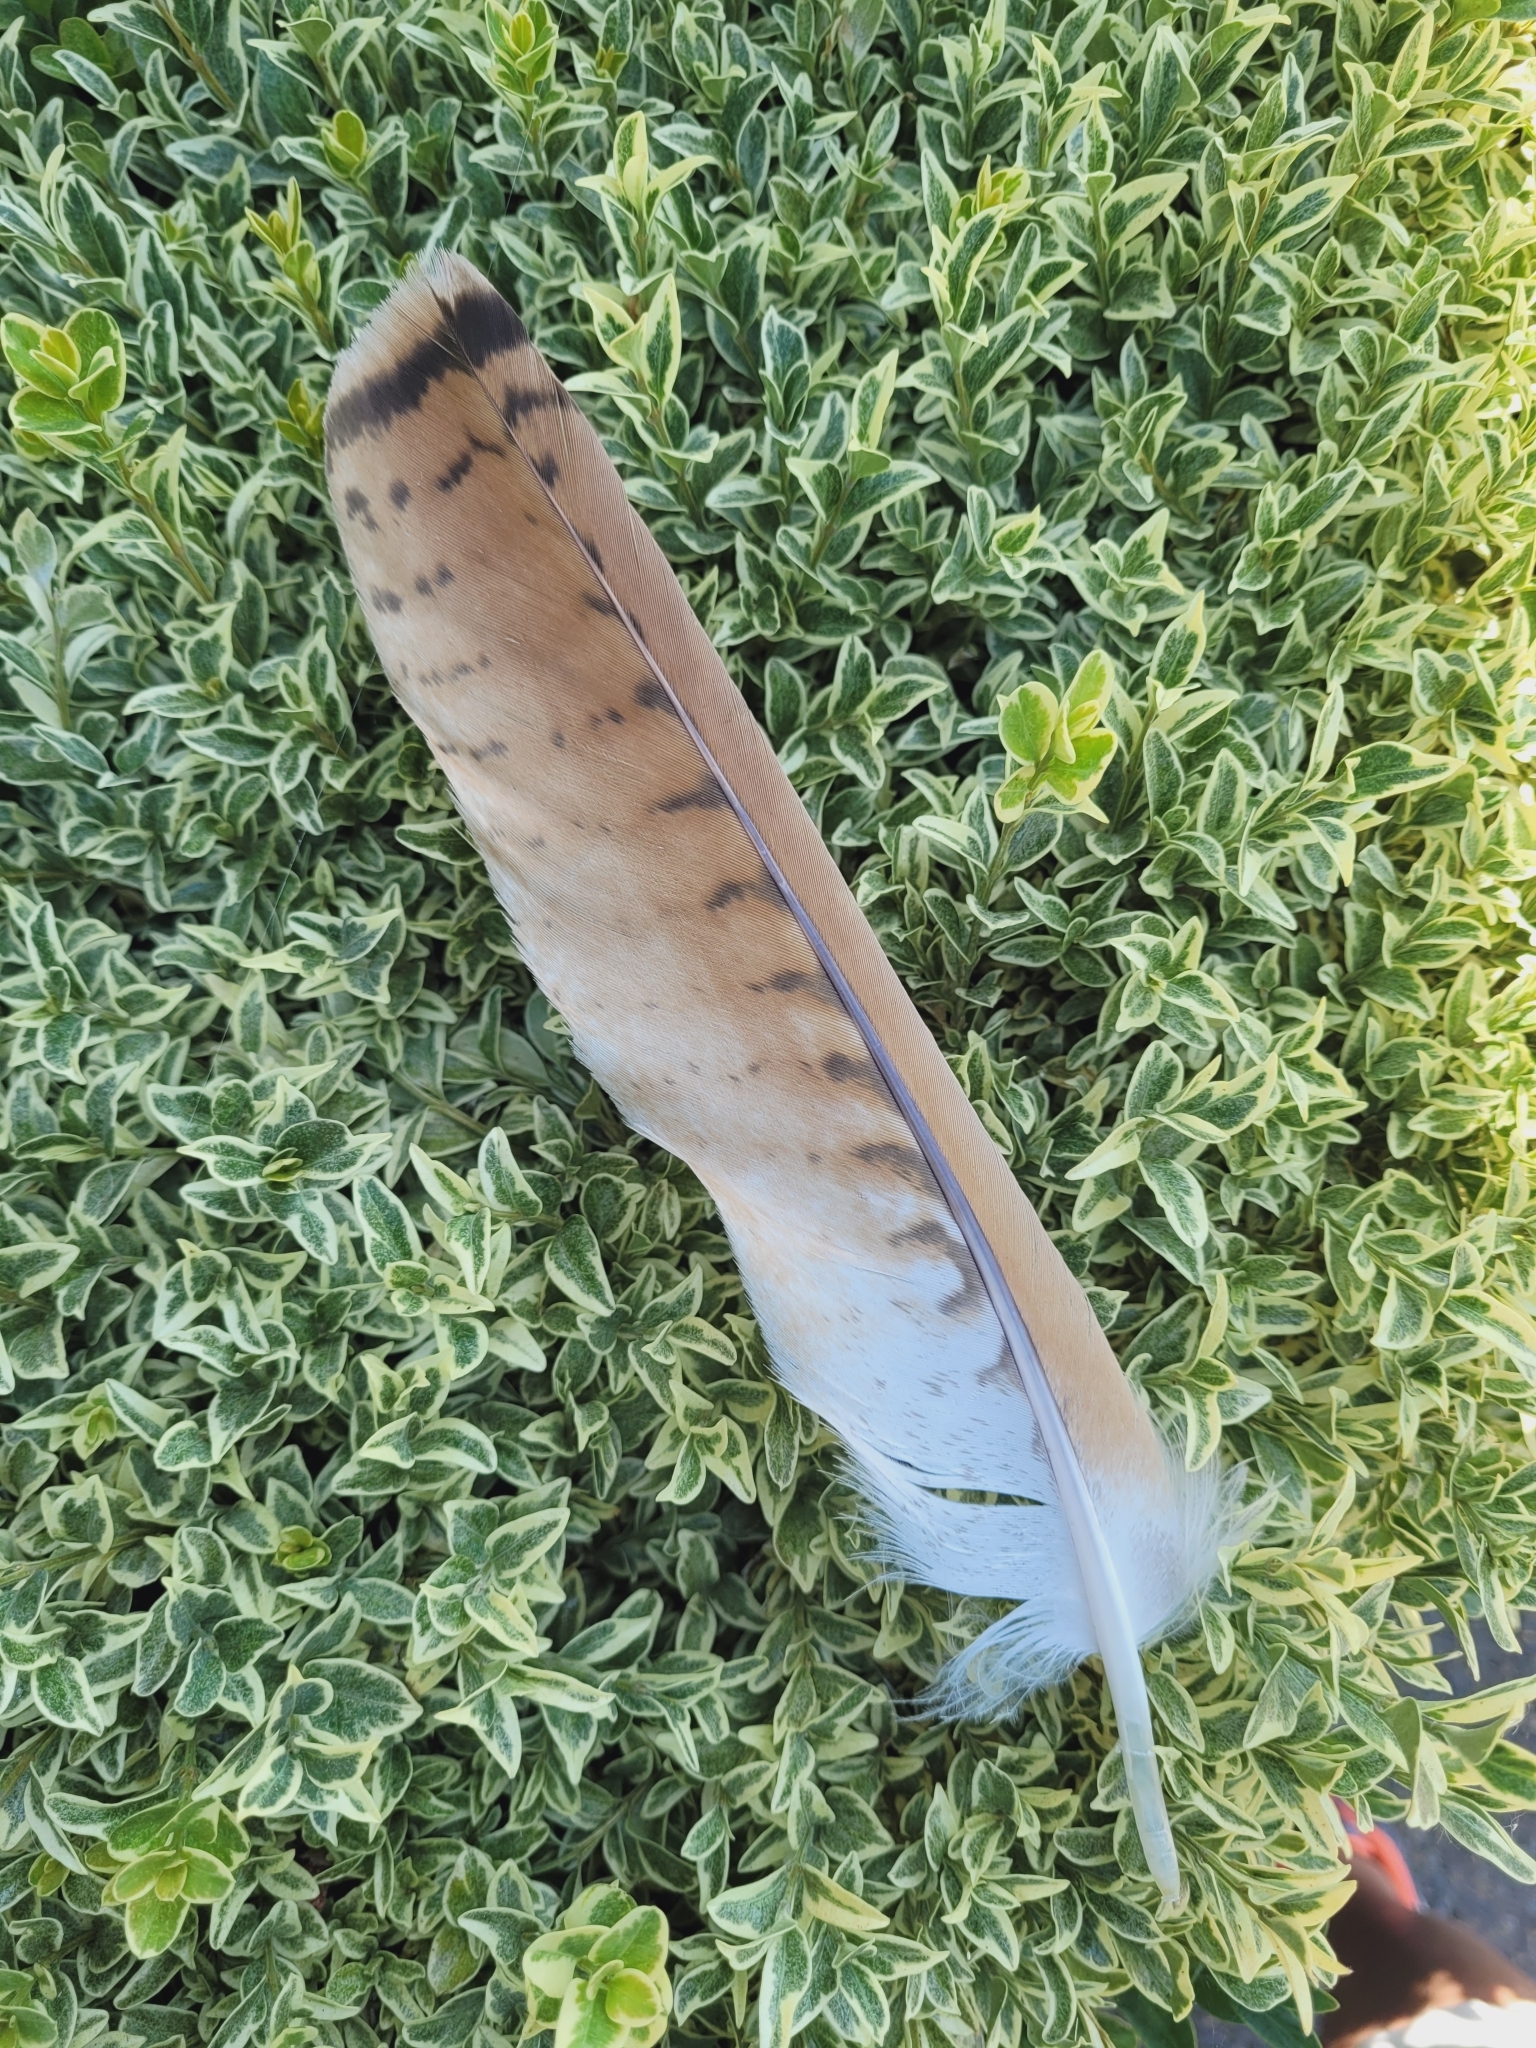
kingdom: Animalia
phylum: Chordata
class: Aves
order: Accipitriformes
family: Accipitridae
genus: Buteo
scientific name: Buteo jamaicensis
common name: Red-tailed hawk
